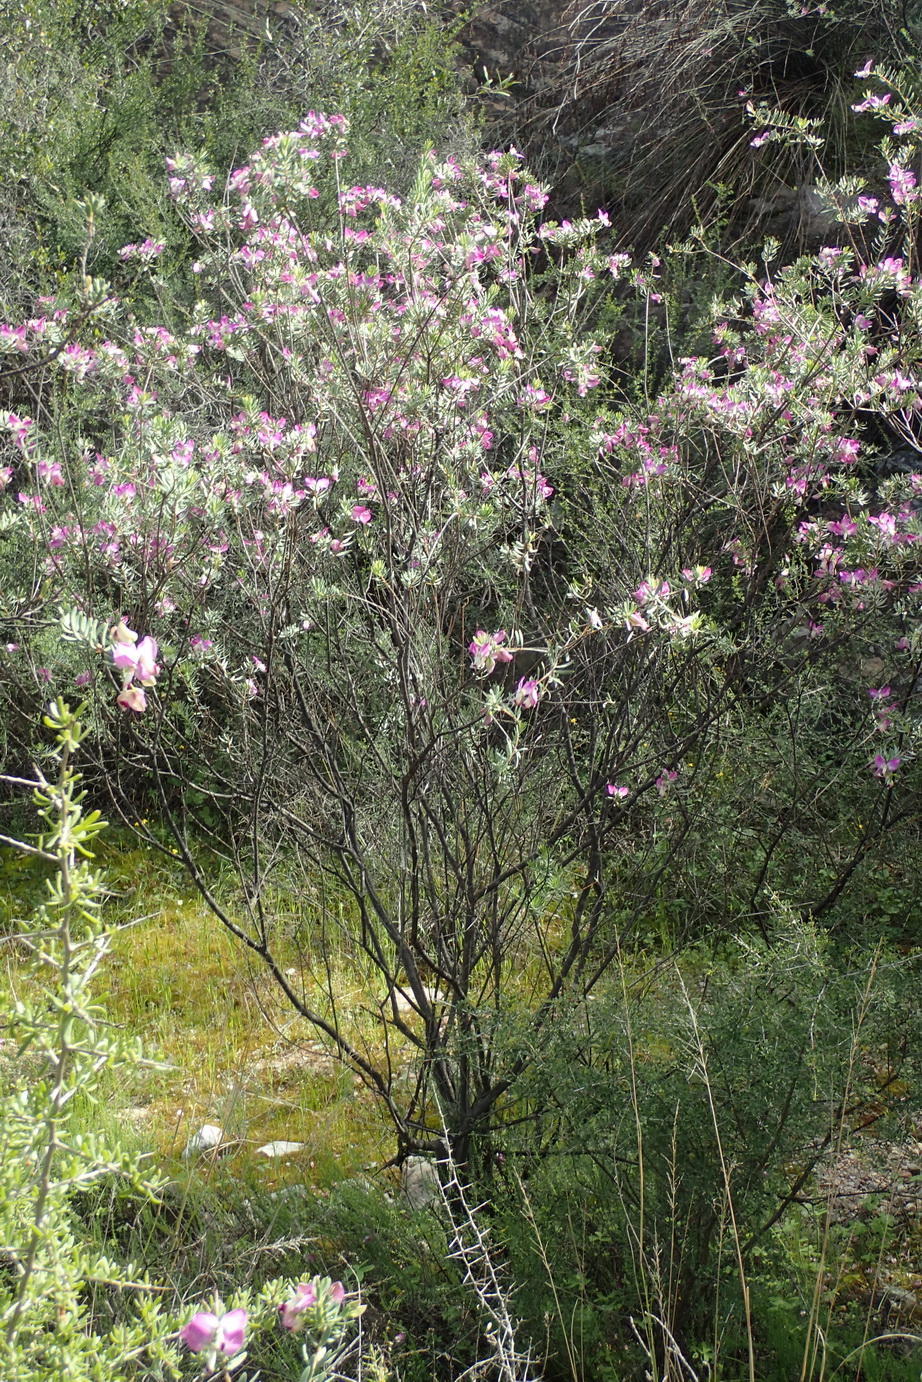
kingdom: Plantae
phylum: Tracheophyta
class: Magnoliopsida
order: Fabales
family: Polygalaceae
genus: Polygala
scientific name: Polygala myrtifolia
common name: Myrtle-leaf milkwort
